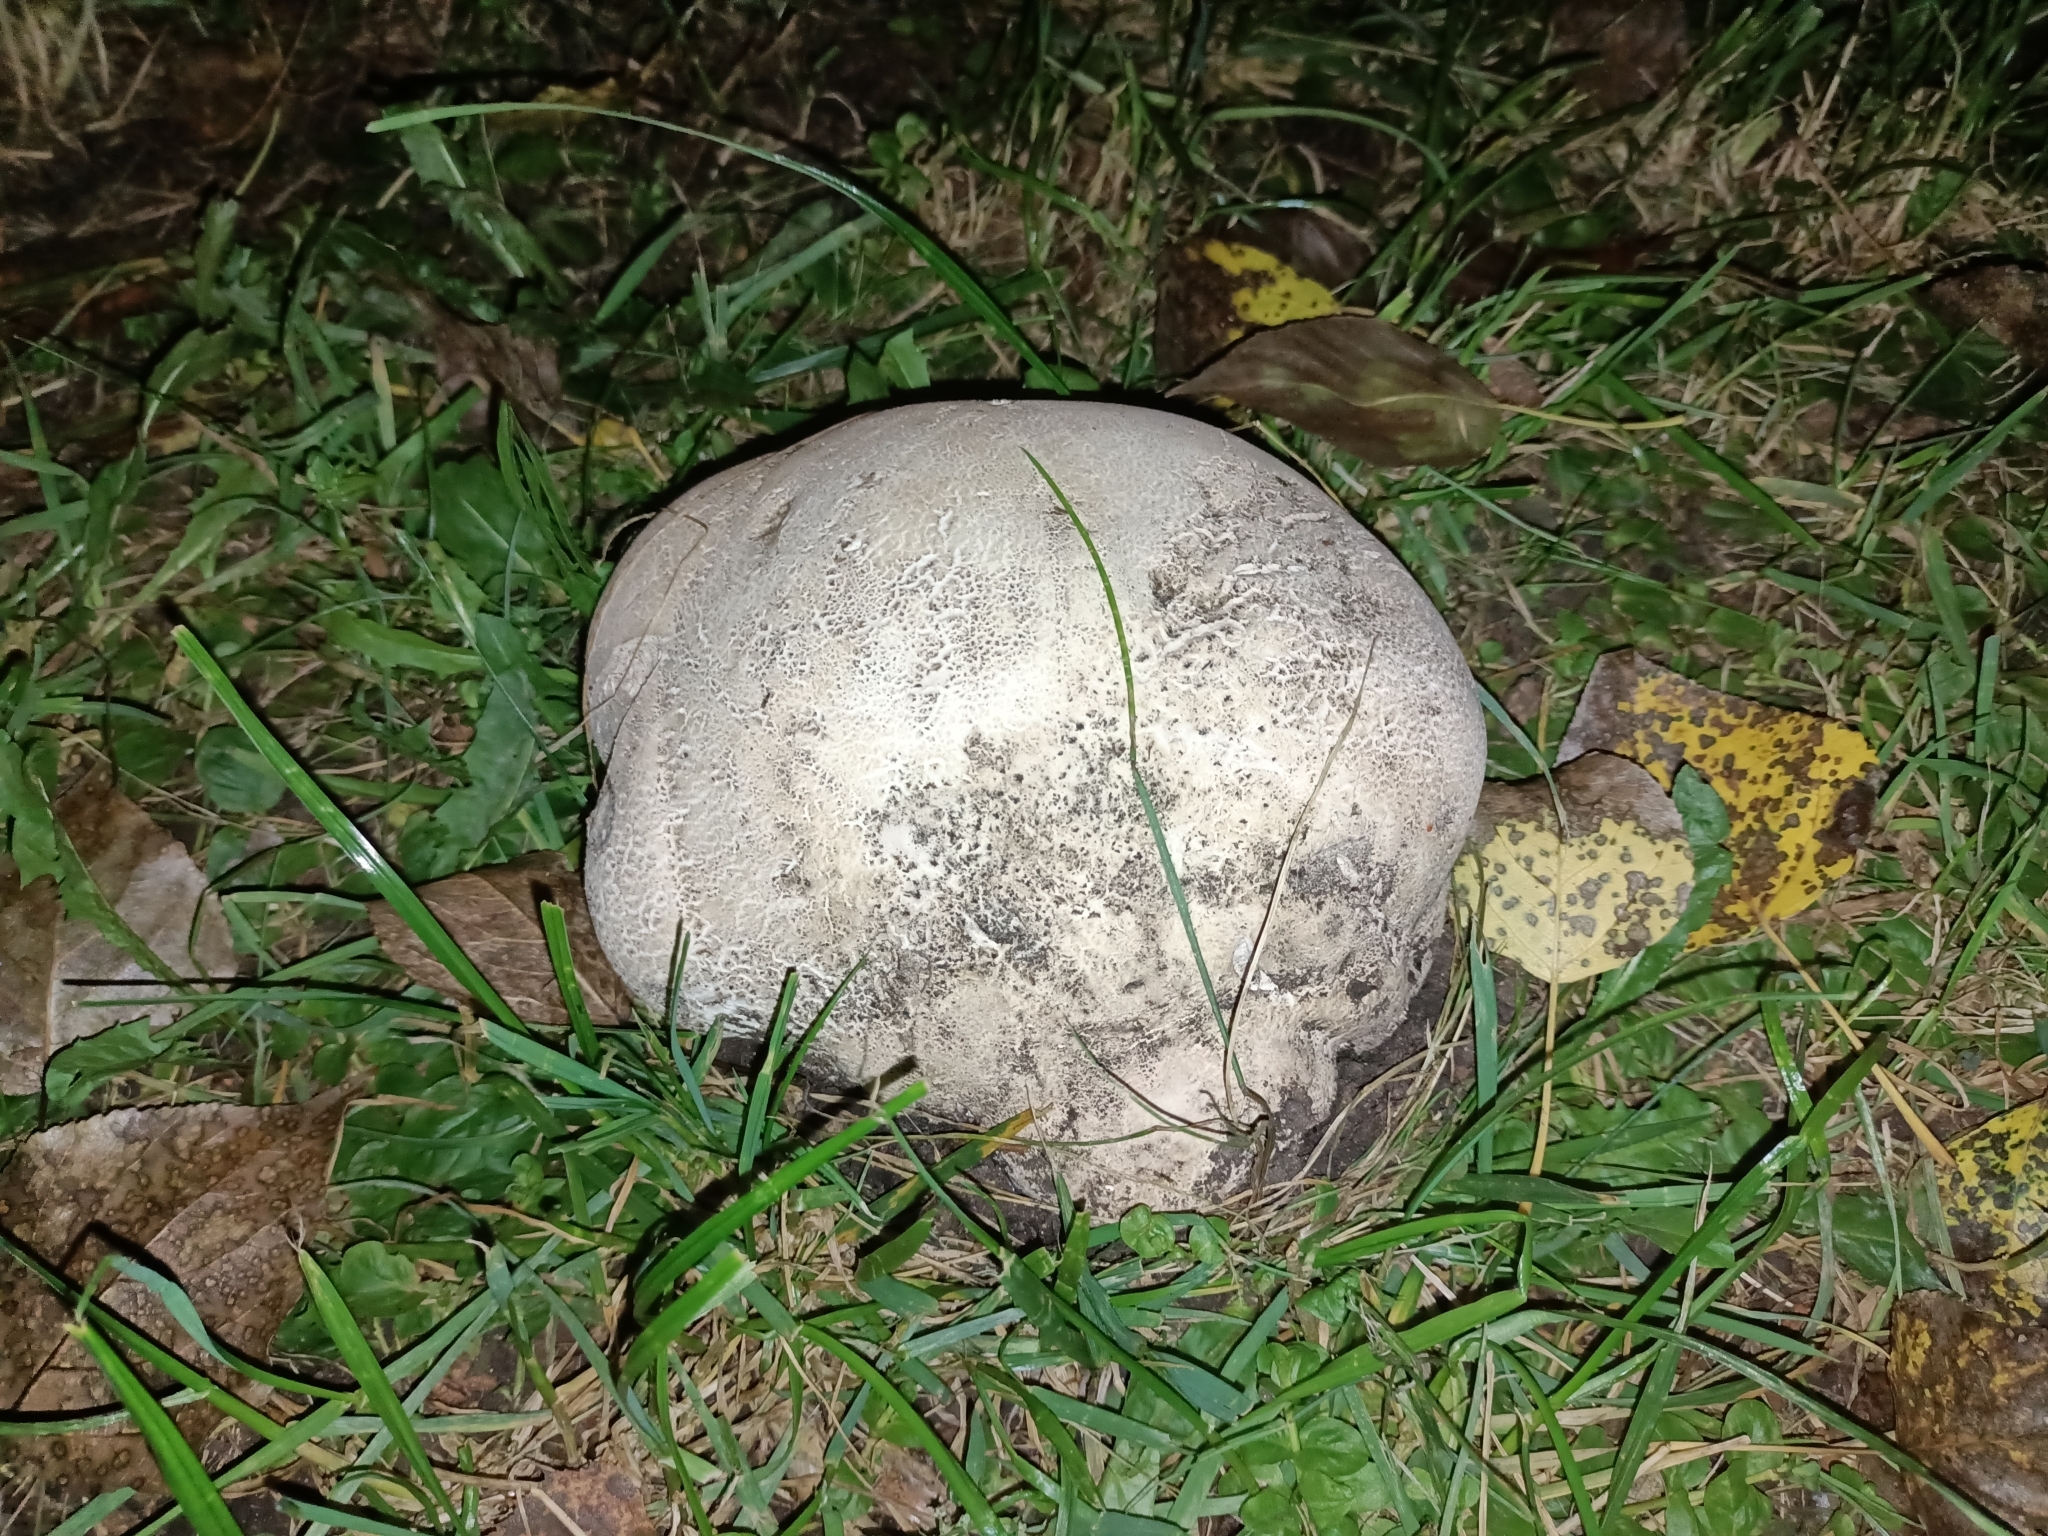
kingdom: Fungi
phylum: Basidiomycota
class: Agaricomycetes
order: Agaricales
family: Lycoperdaceae
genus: Calvatia
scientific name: Calvatia gigantea
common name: Giant puffball
